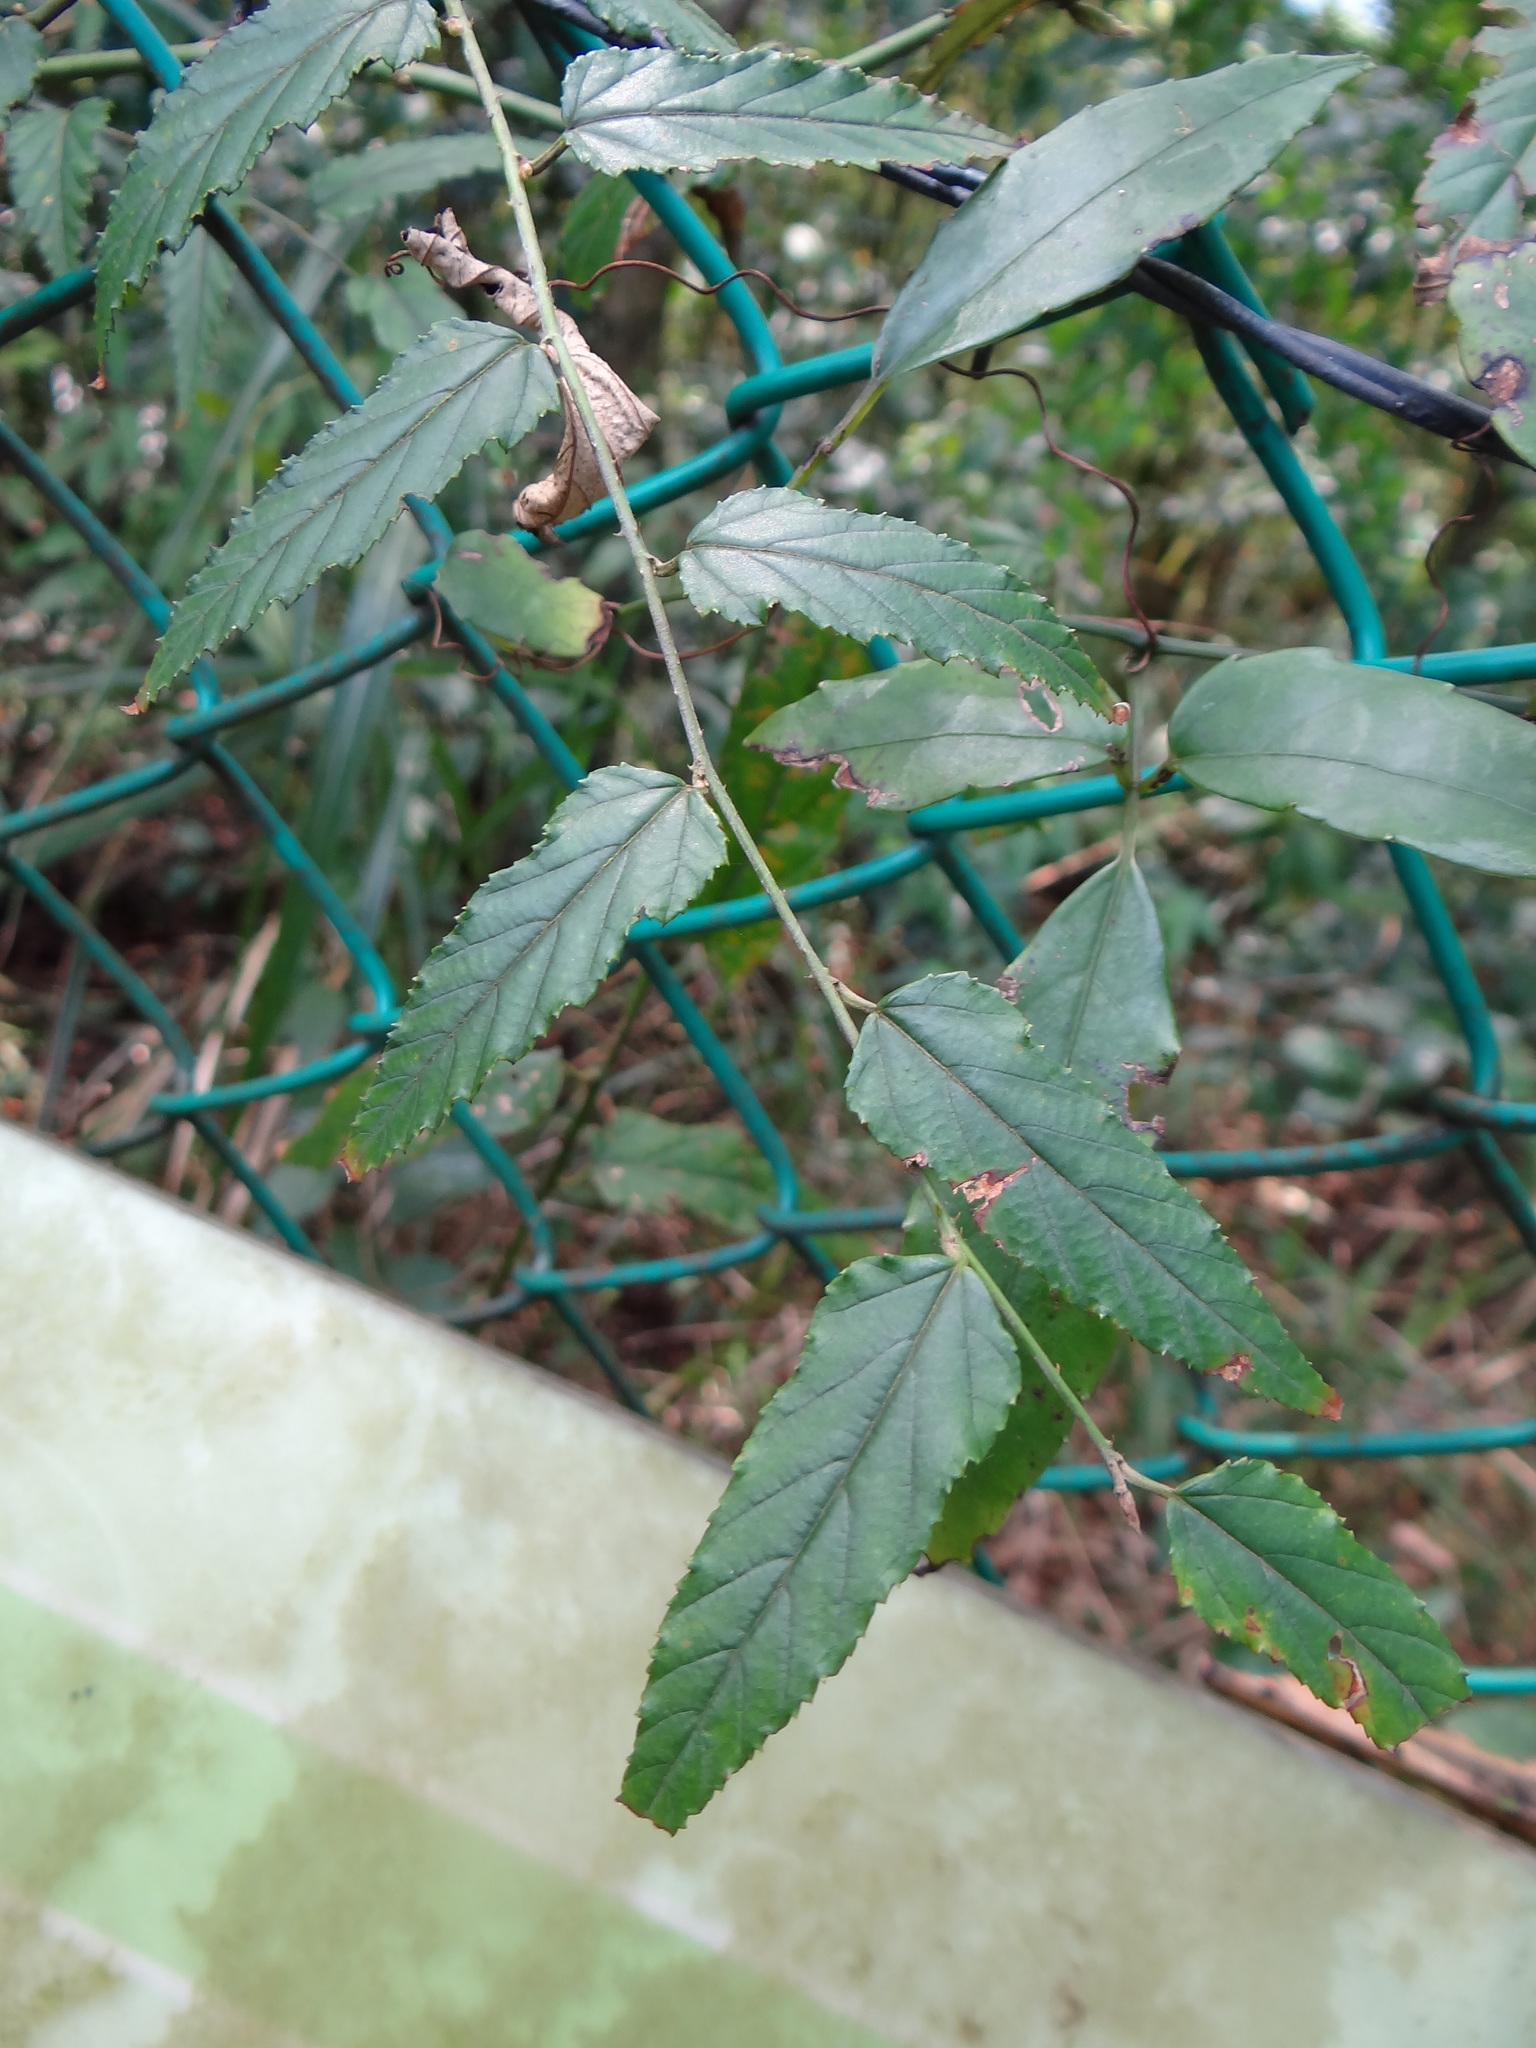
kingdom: Plantae
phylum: Tracheophyta
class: Magnoliopsida
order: Rosales
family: Rosaceae
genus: Rubus
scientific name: Rubus swinhoei
